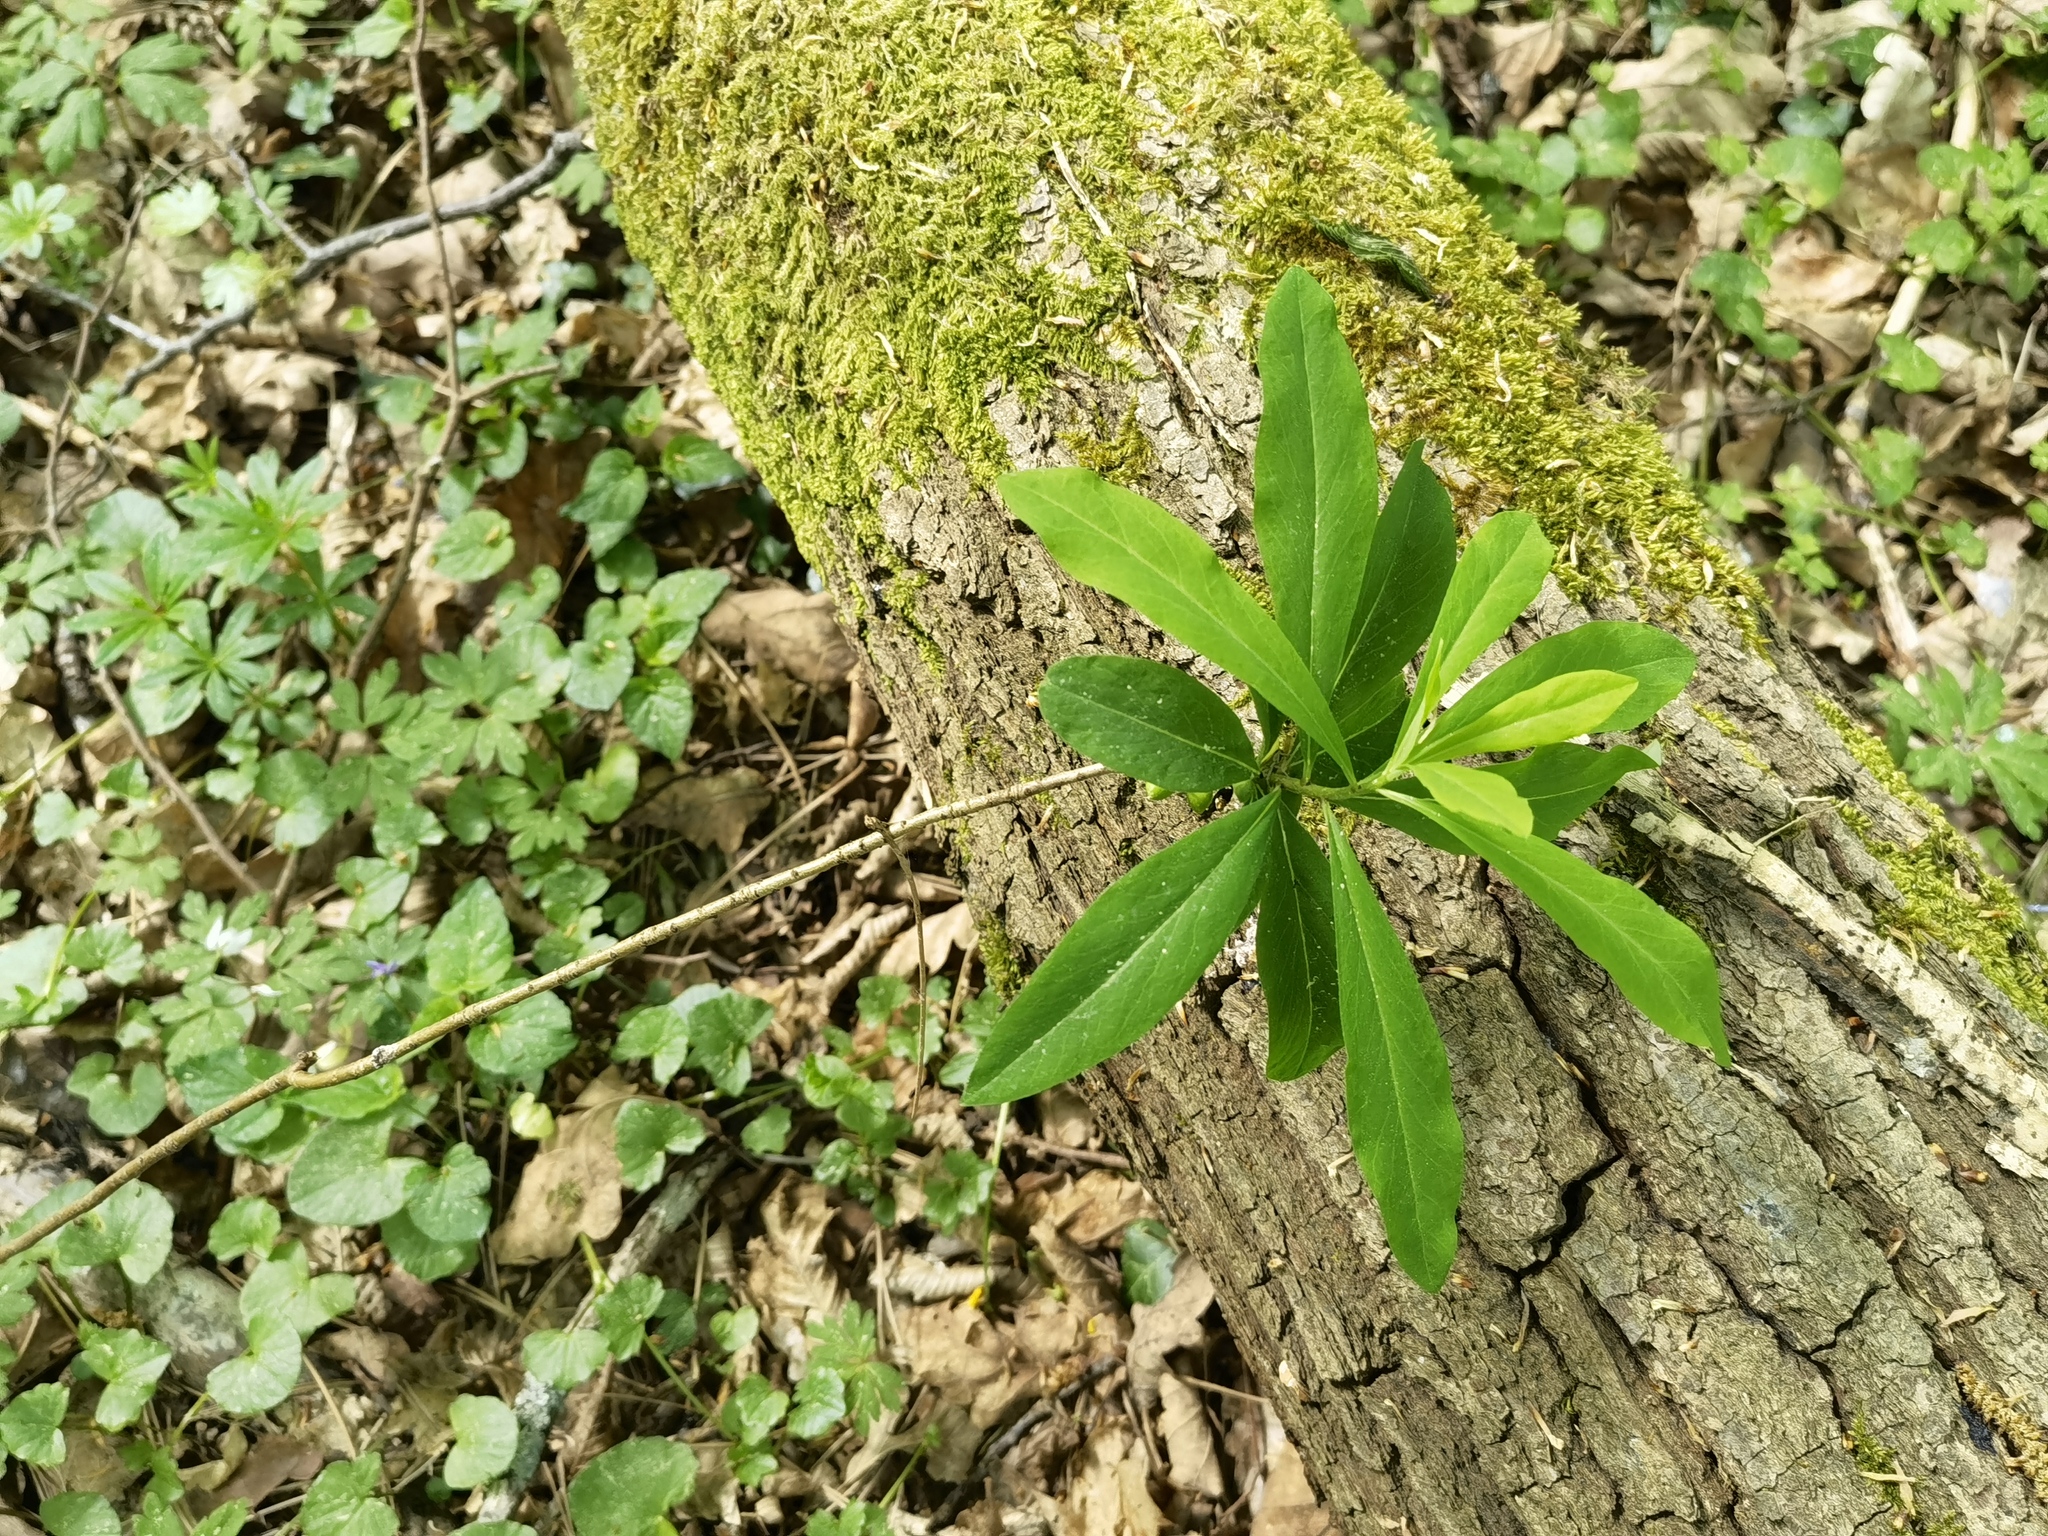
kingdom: Plantae
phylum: Tracheophyta
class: Magnoliopsida
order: Malvales
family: Thymelaeaceae
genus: Daphne
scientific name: Daphne mezereum
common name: Mezereon
